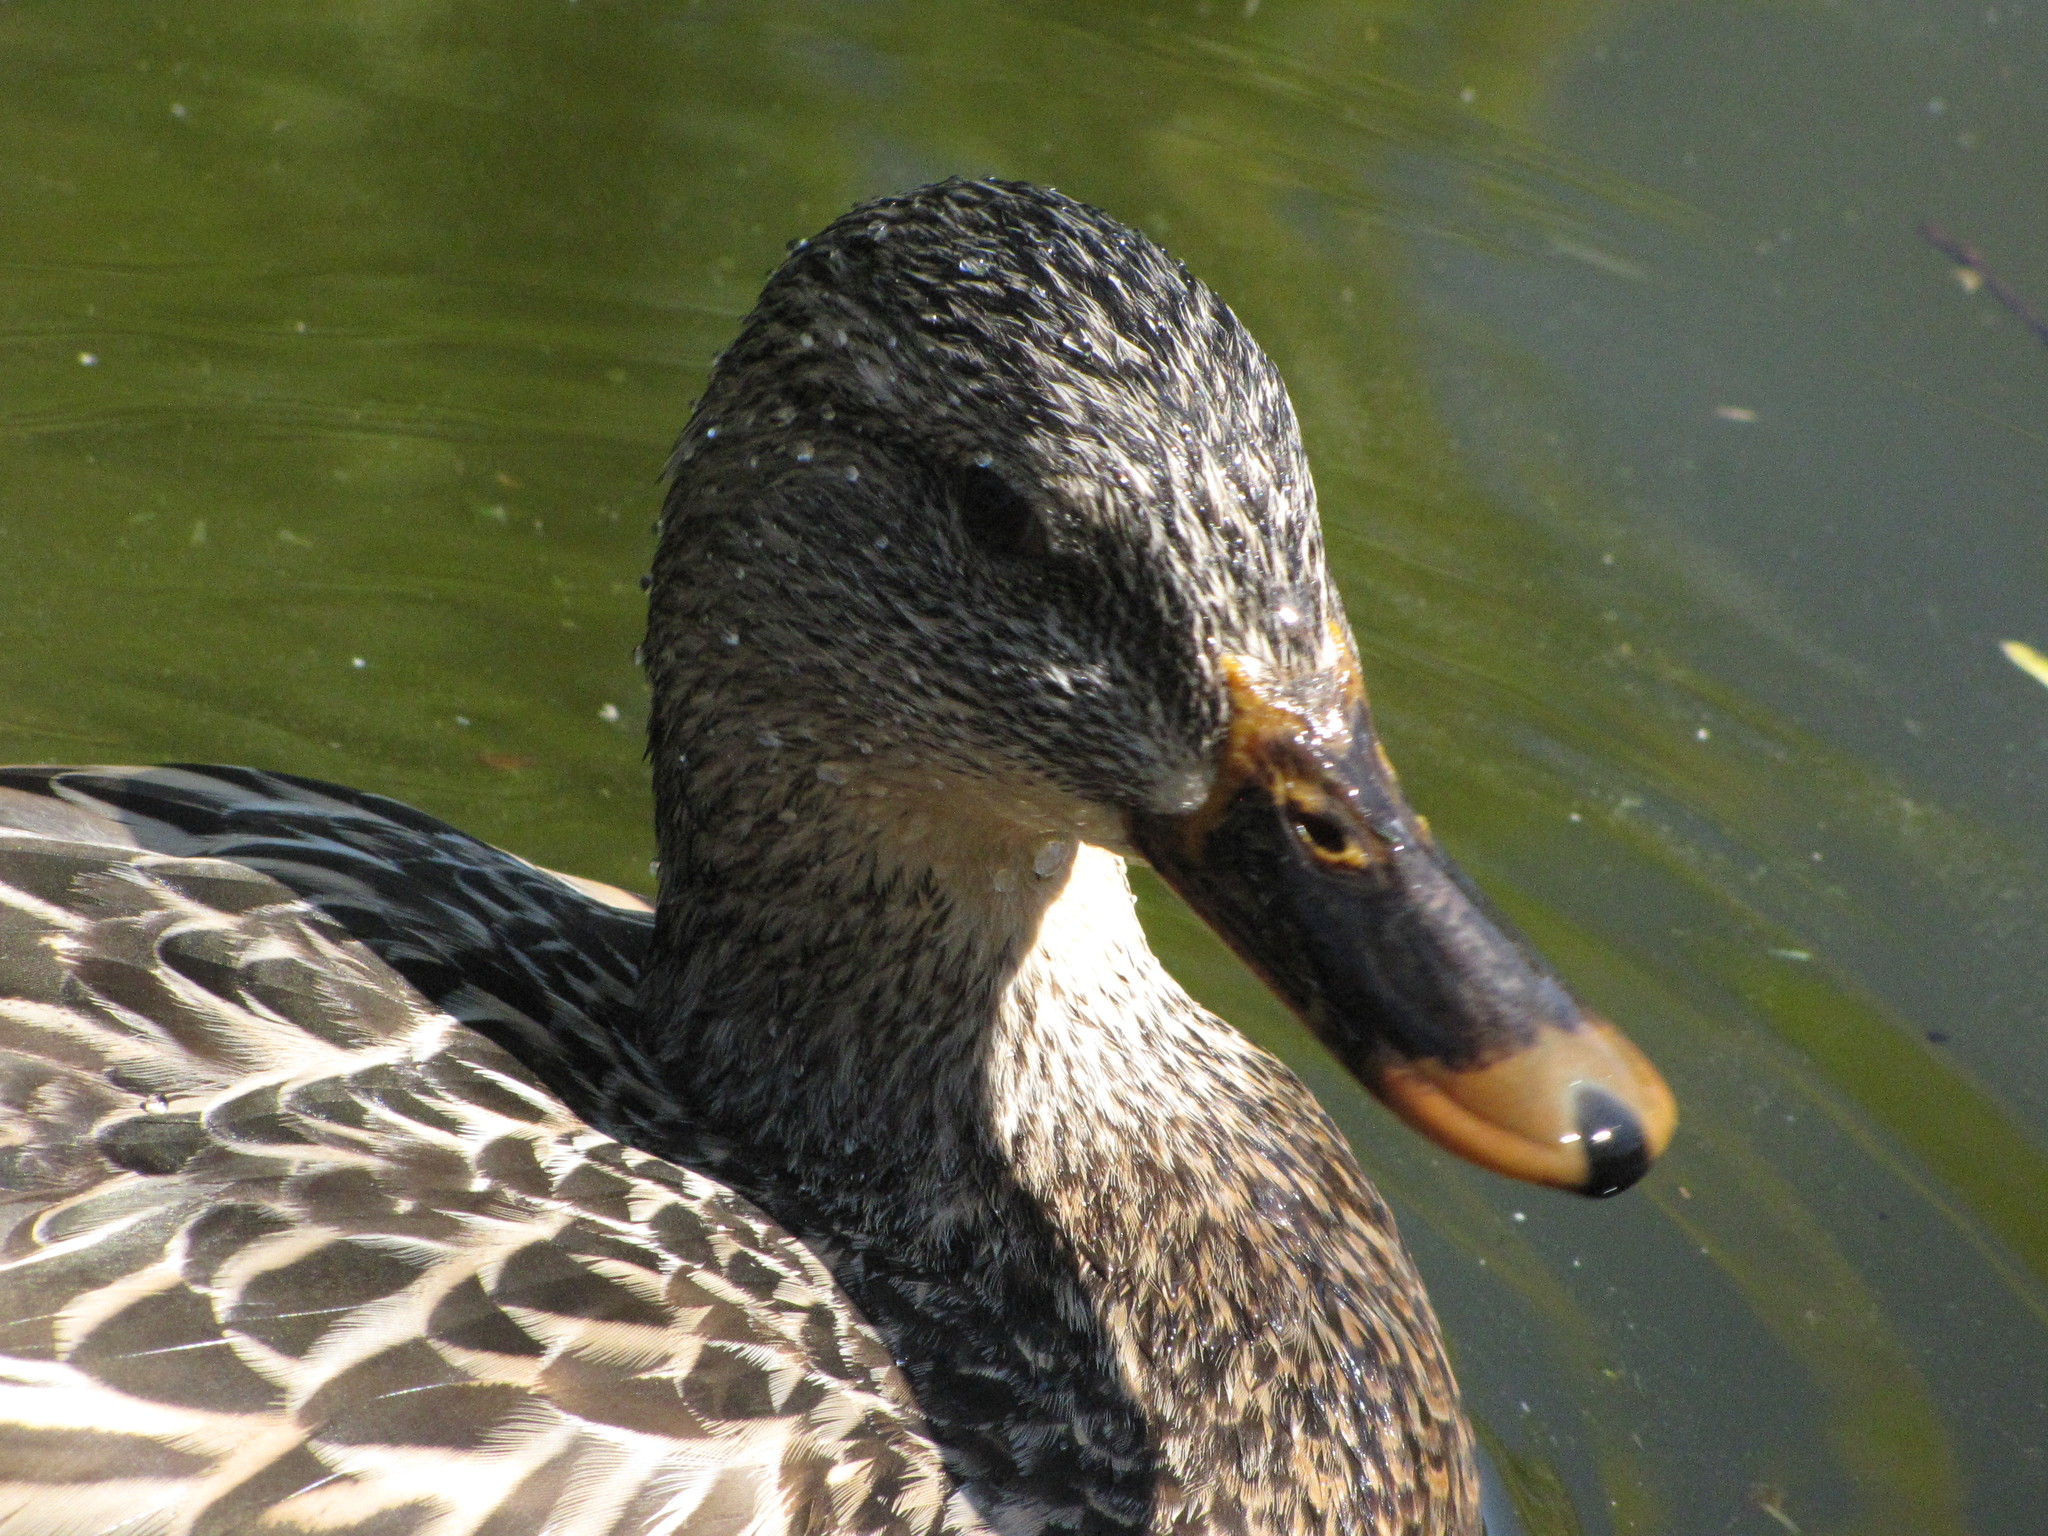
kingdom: Animalia
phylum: Chordata
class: Aves
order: Anseriformes
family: Anatidae
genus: Anas
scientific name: Anas platyrhynchos
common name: Mallard
